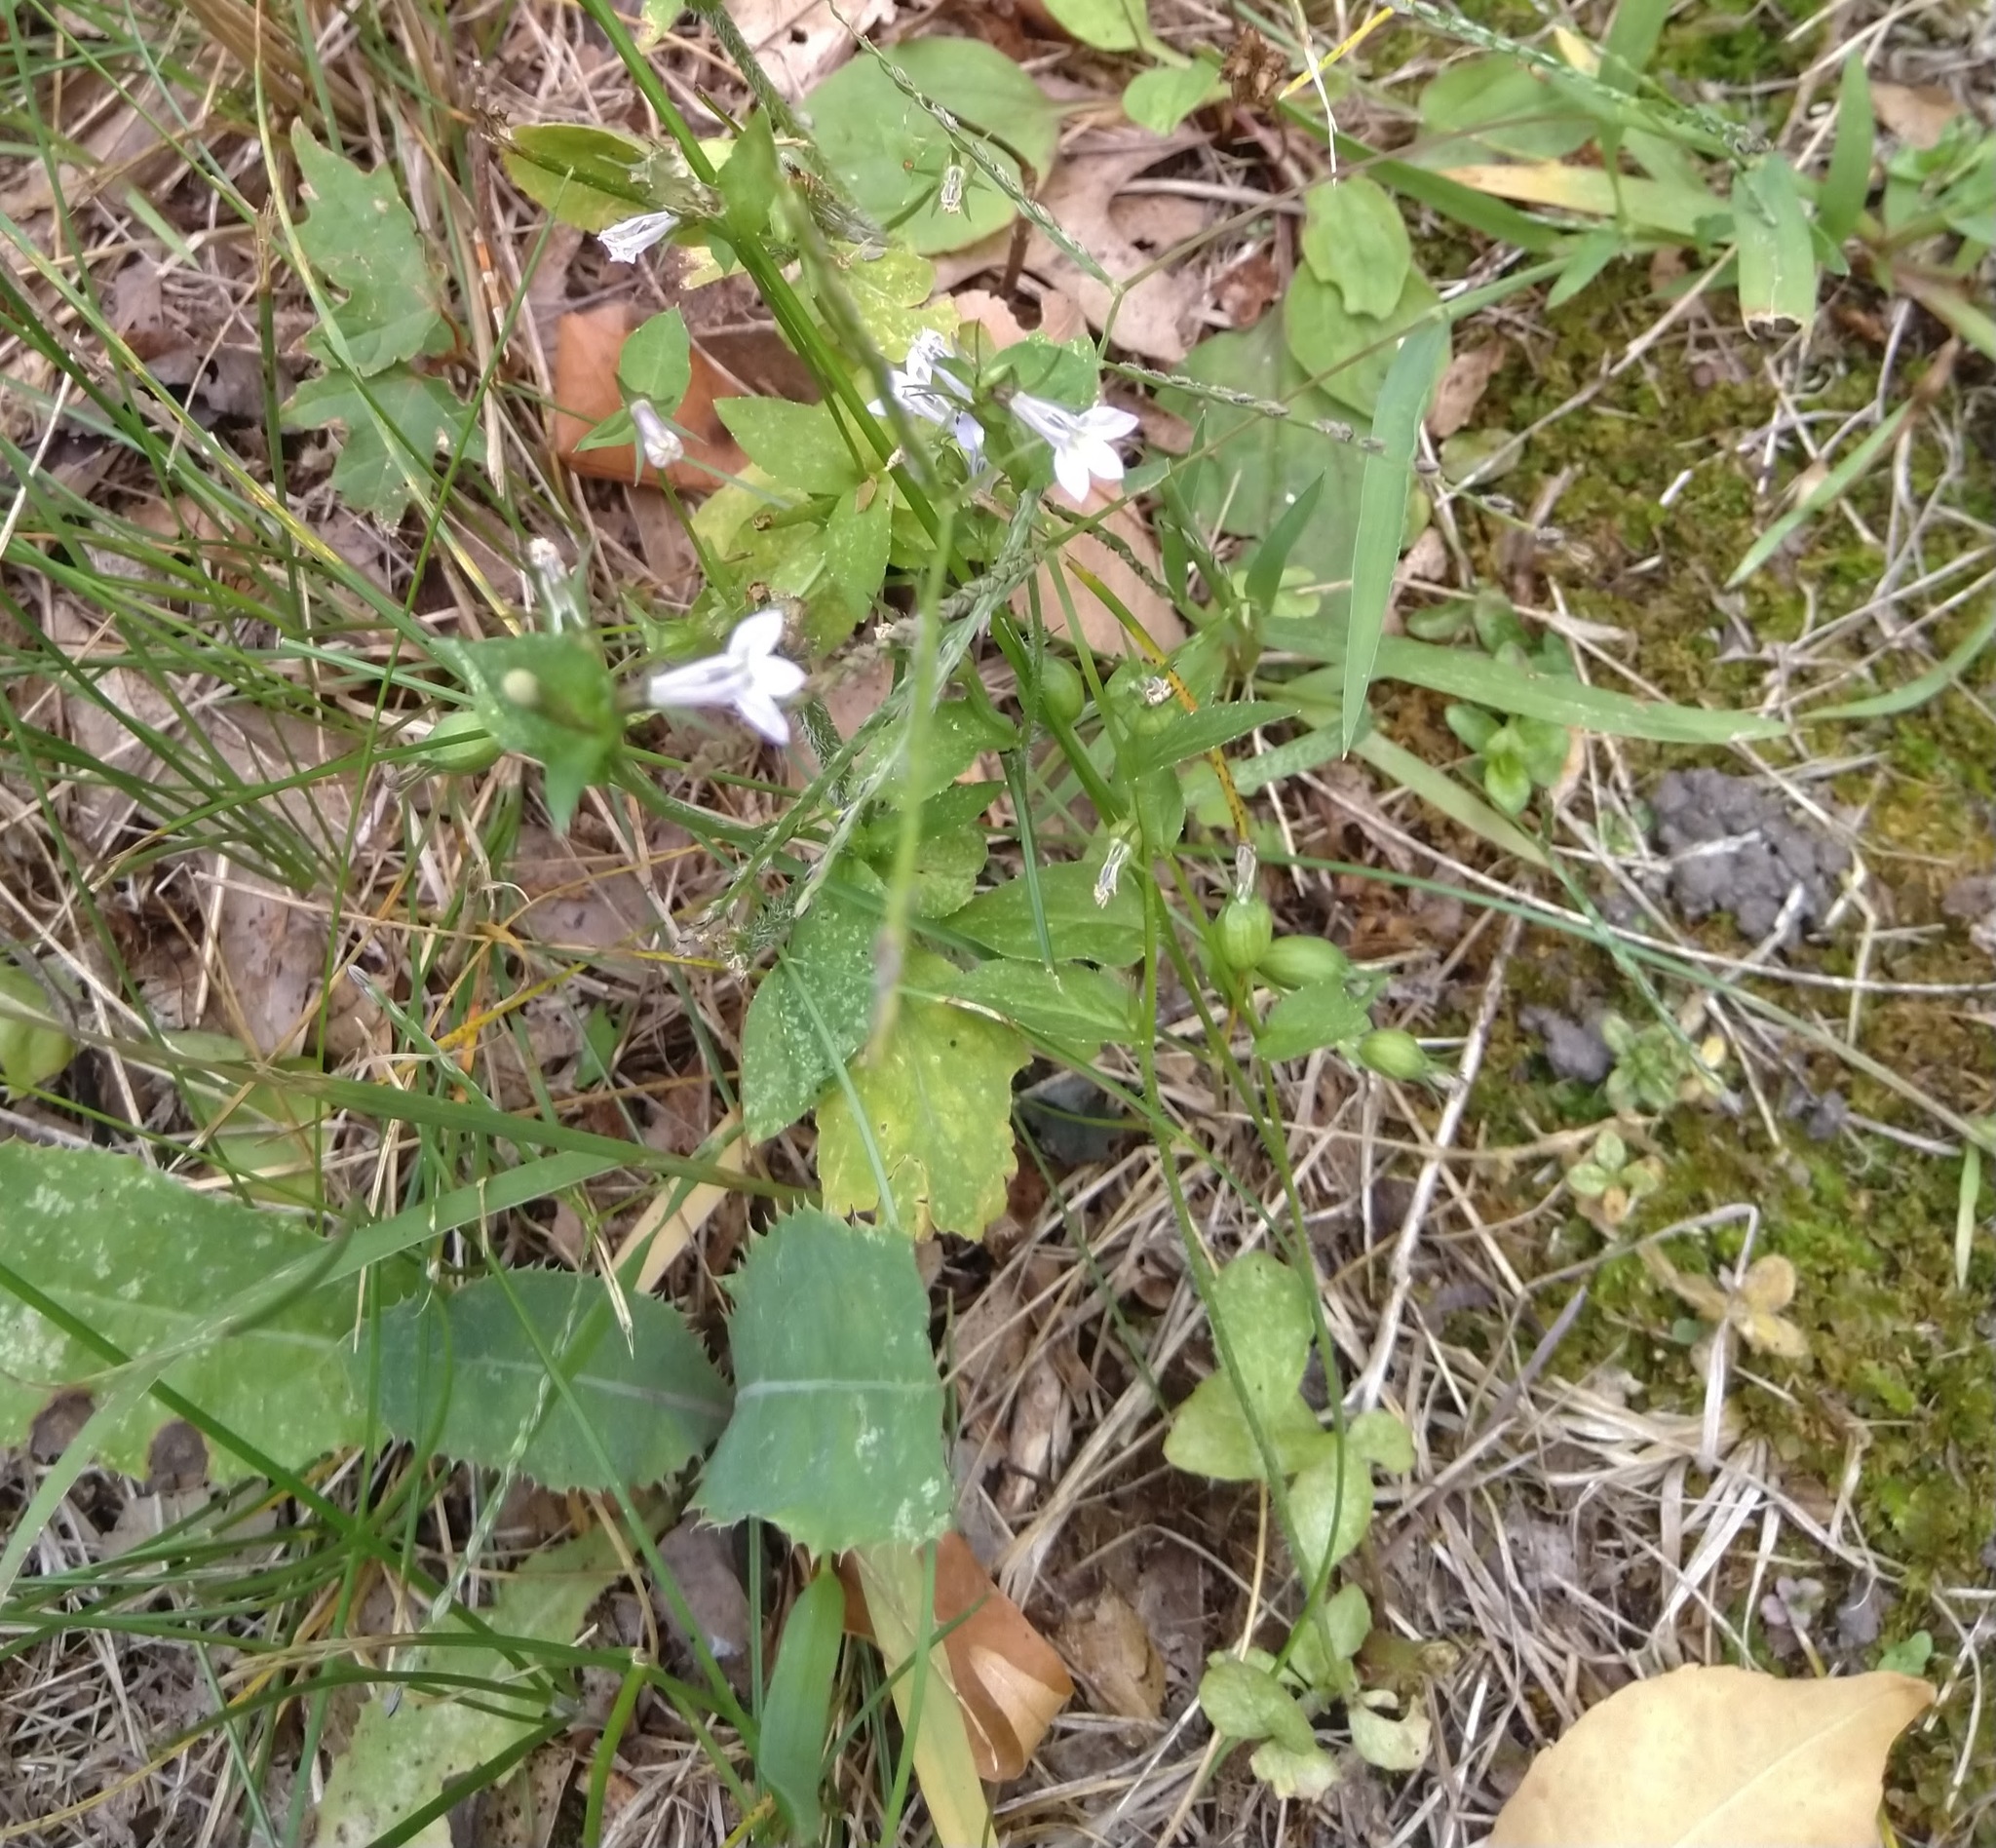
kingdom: Plantae
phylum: Tracheophyta
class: Magnoliopsida
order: Asterales
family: Campanulaceae
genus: Lobelia
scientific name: Lobelia inflata
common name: Indian tobacco
